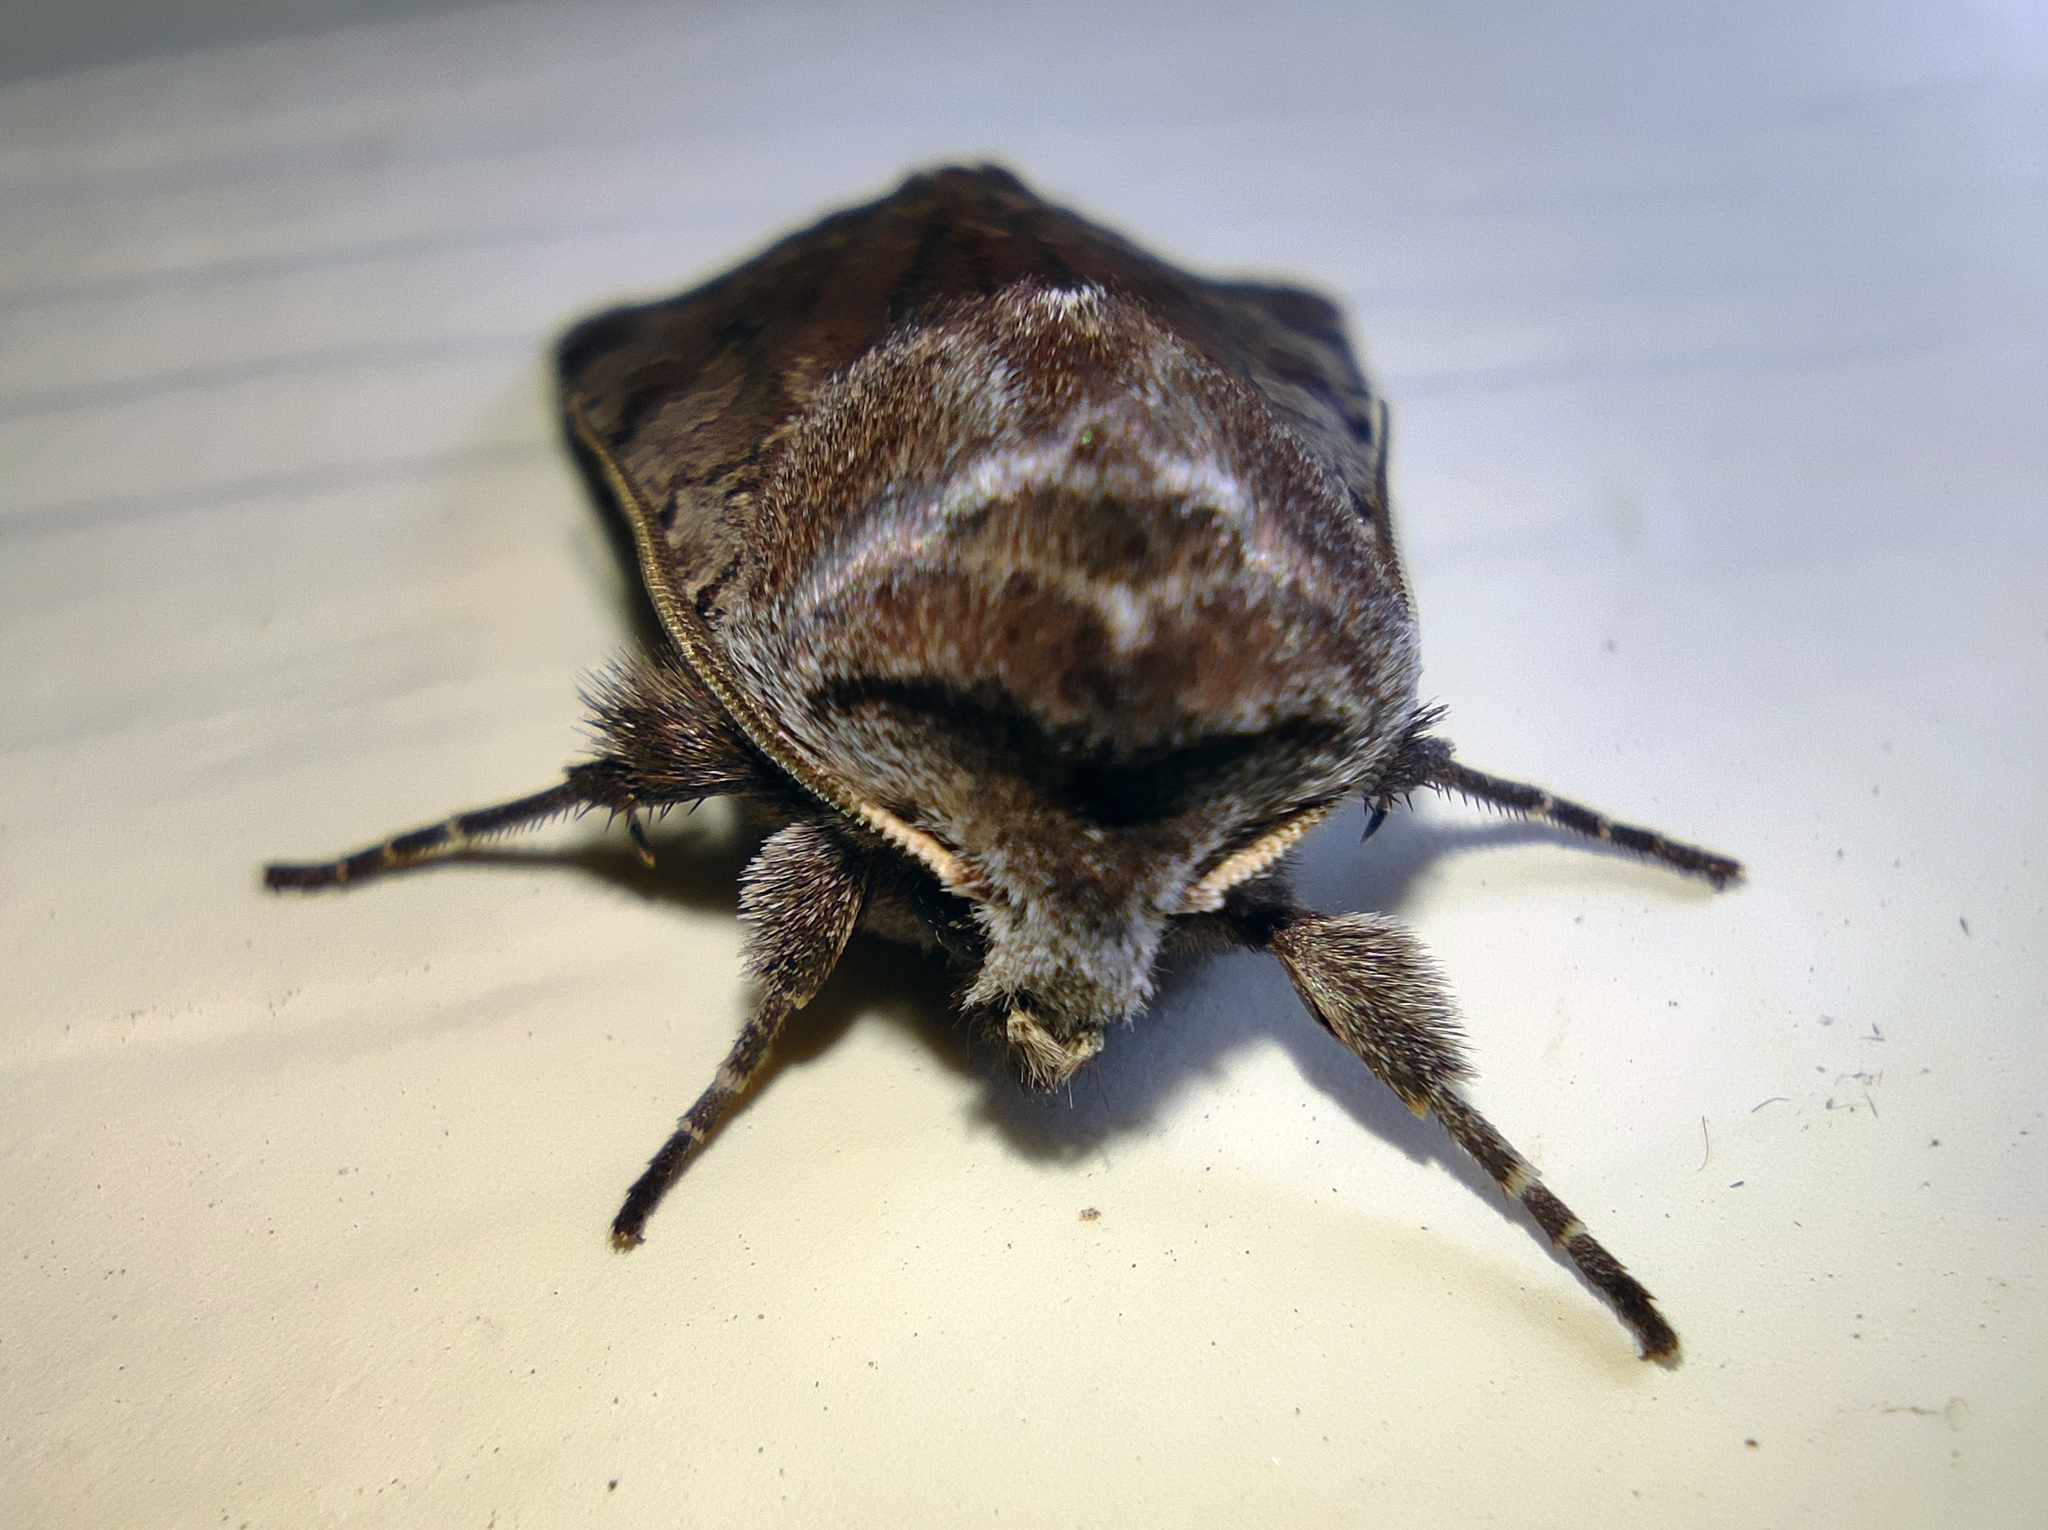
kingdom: Animalia
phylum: Arthropoda
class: Insecta
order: Lepidoptera
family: Noctuidae
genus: Cerastis
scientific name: Cerastis rubricosa
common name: Red chestnut
